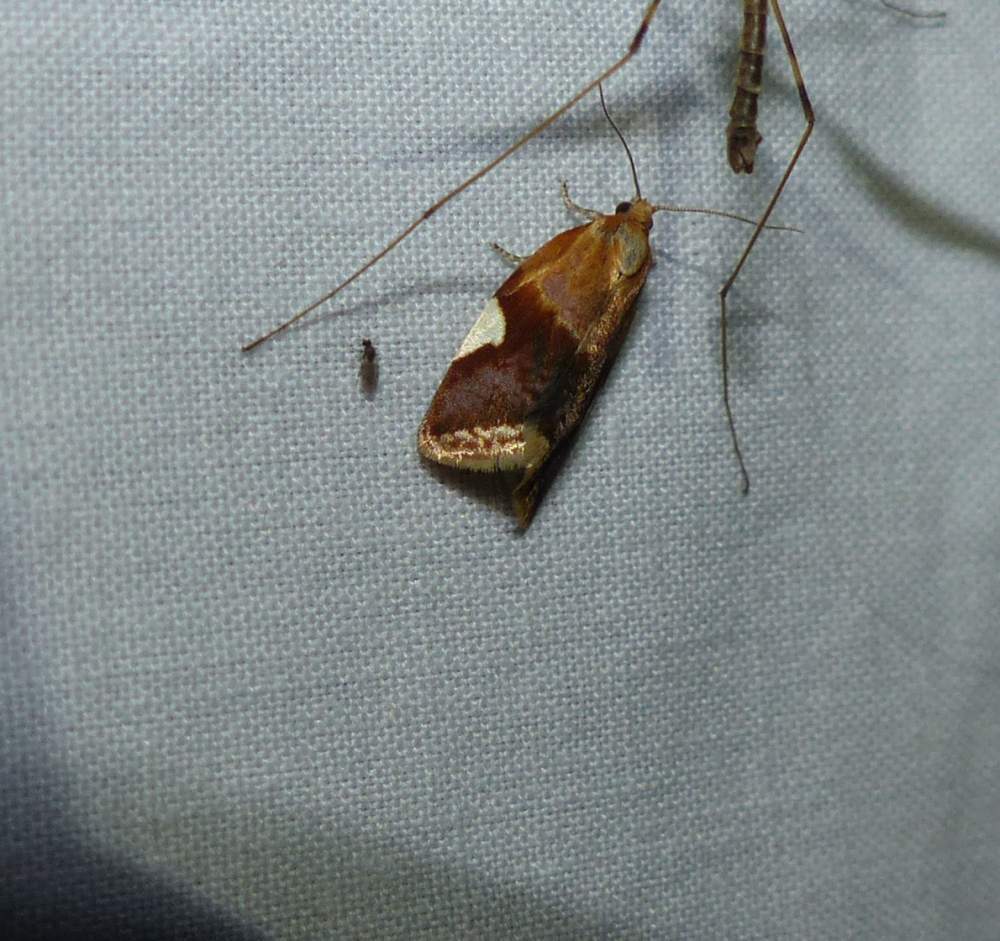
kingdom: Animalia
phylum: Arthropoda
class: Insecta
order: Lepidoptera
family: Tortricidae
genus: Clepsis
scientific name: Clepsis persicana
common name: White triangle tortrix
